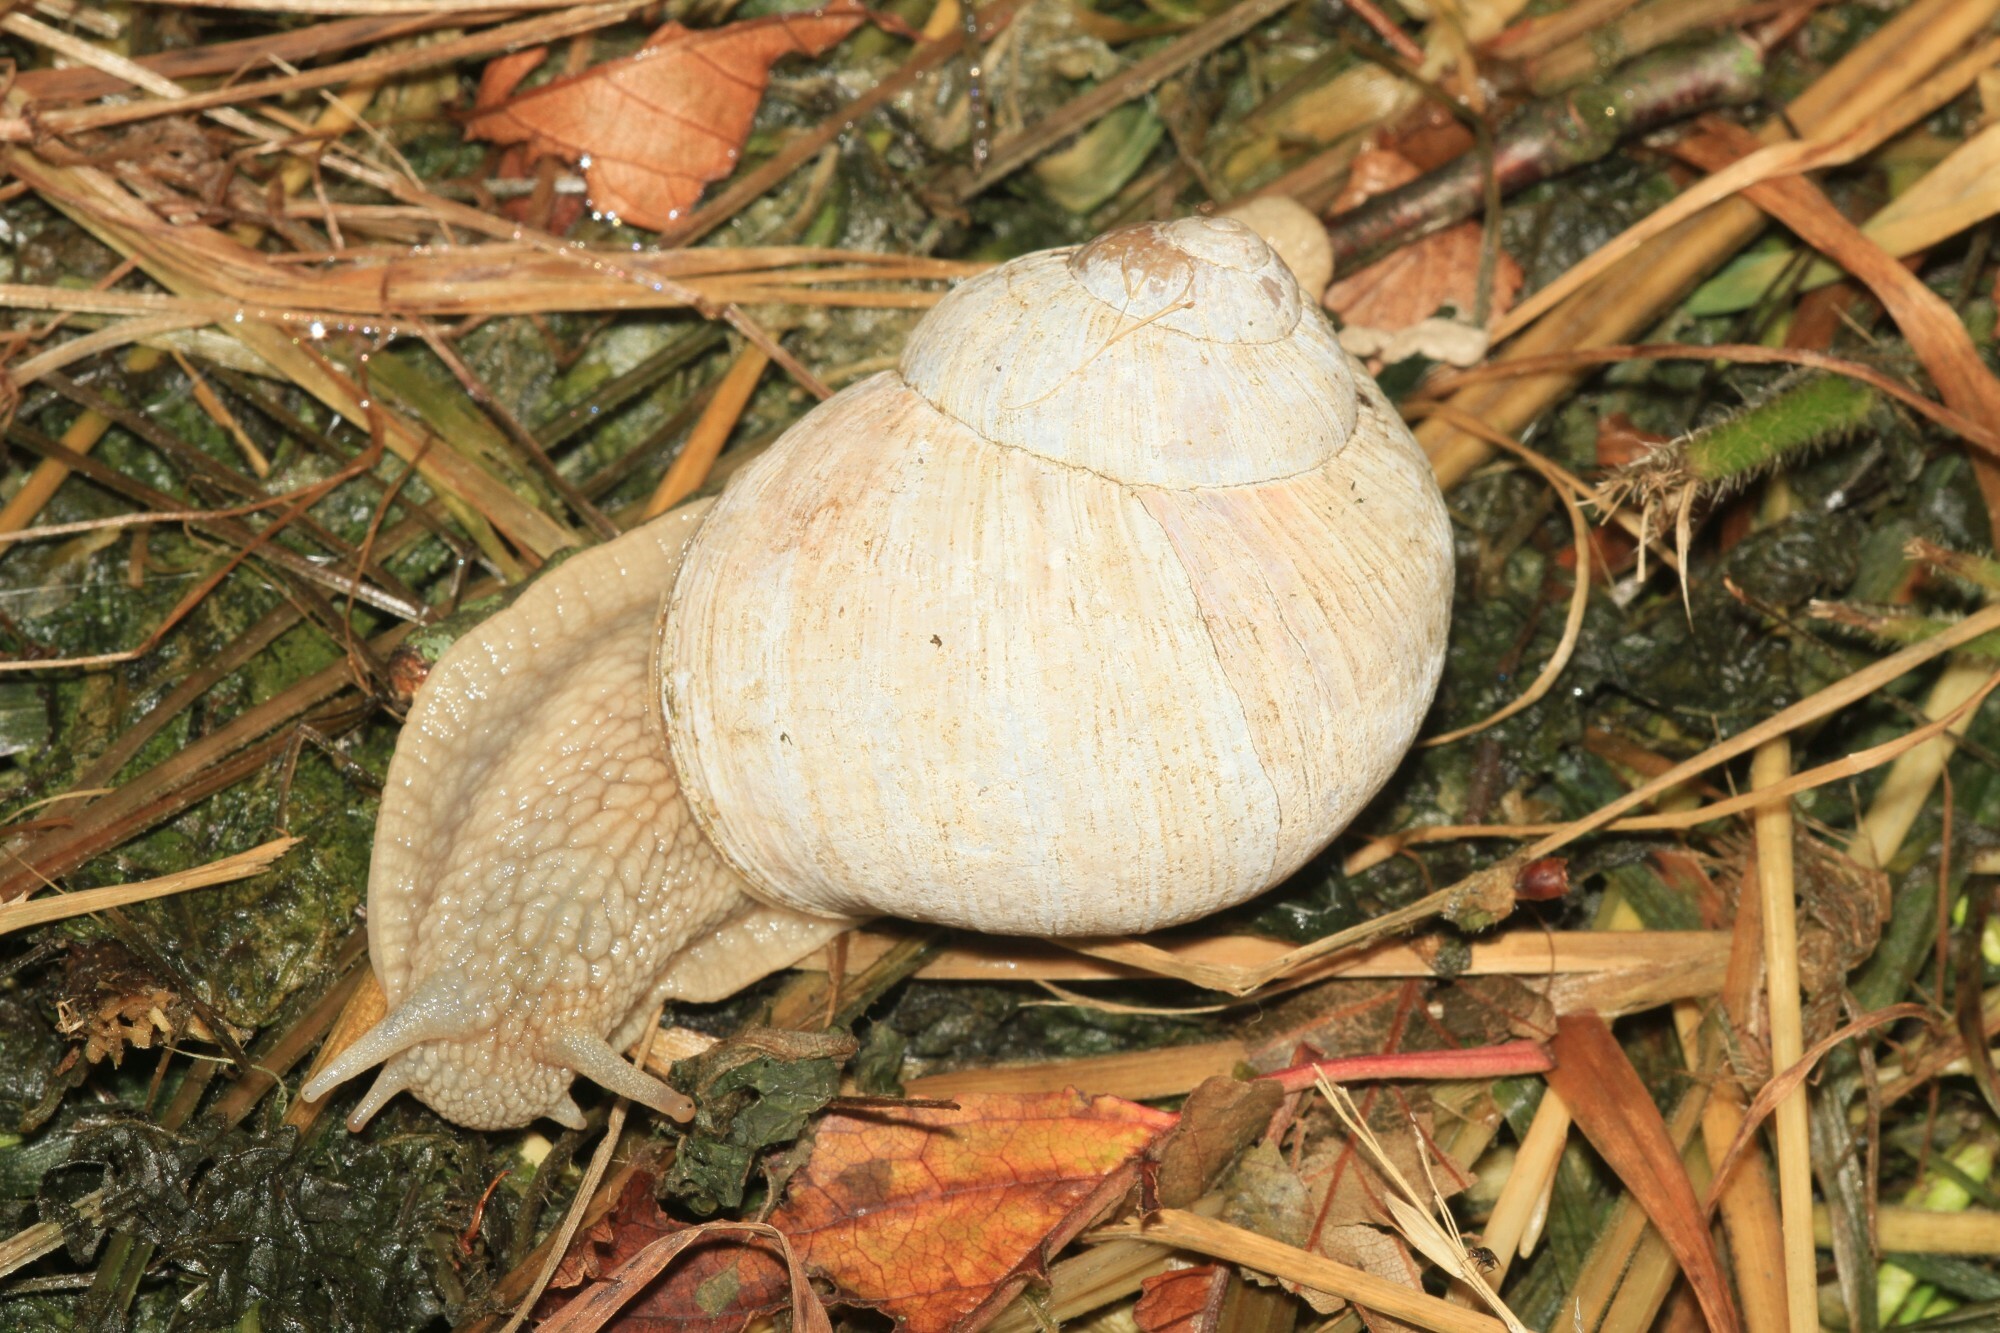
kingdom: Animalia
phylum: Mollusca
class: Gastropoda
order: Stylommatophora
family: Helicidae
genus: Helix
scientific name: Helix pomatia
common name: Roman snail
